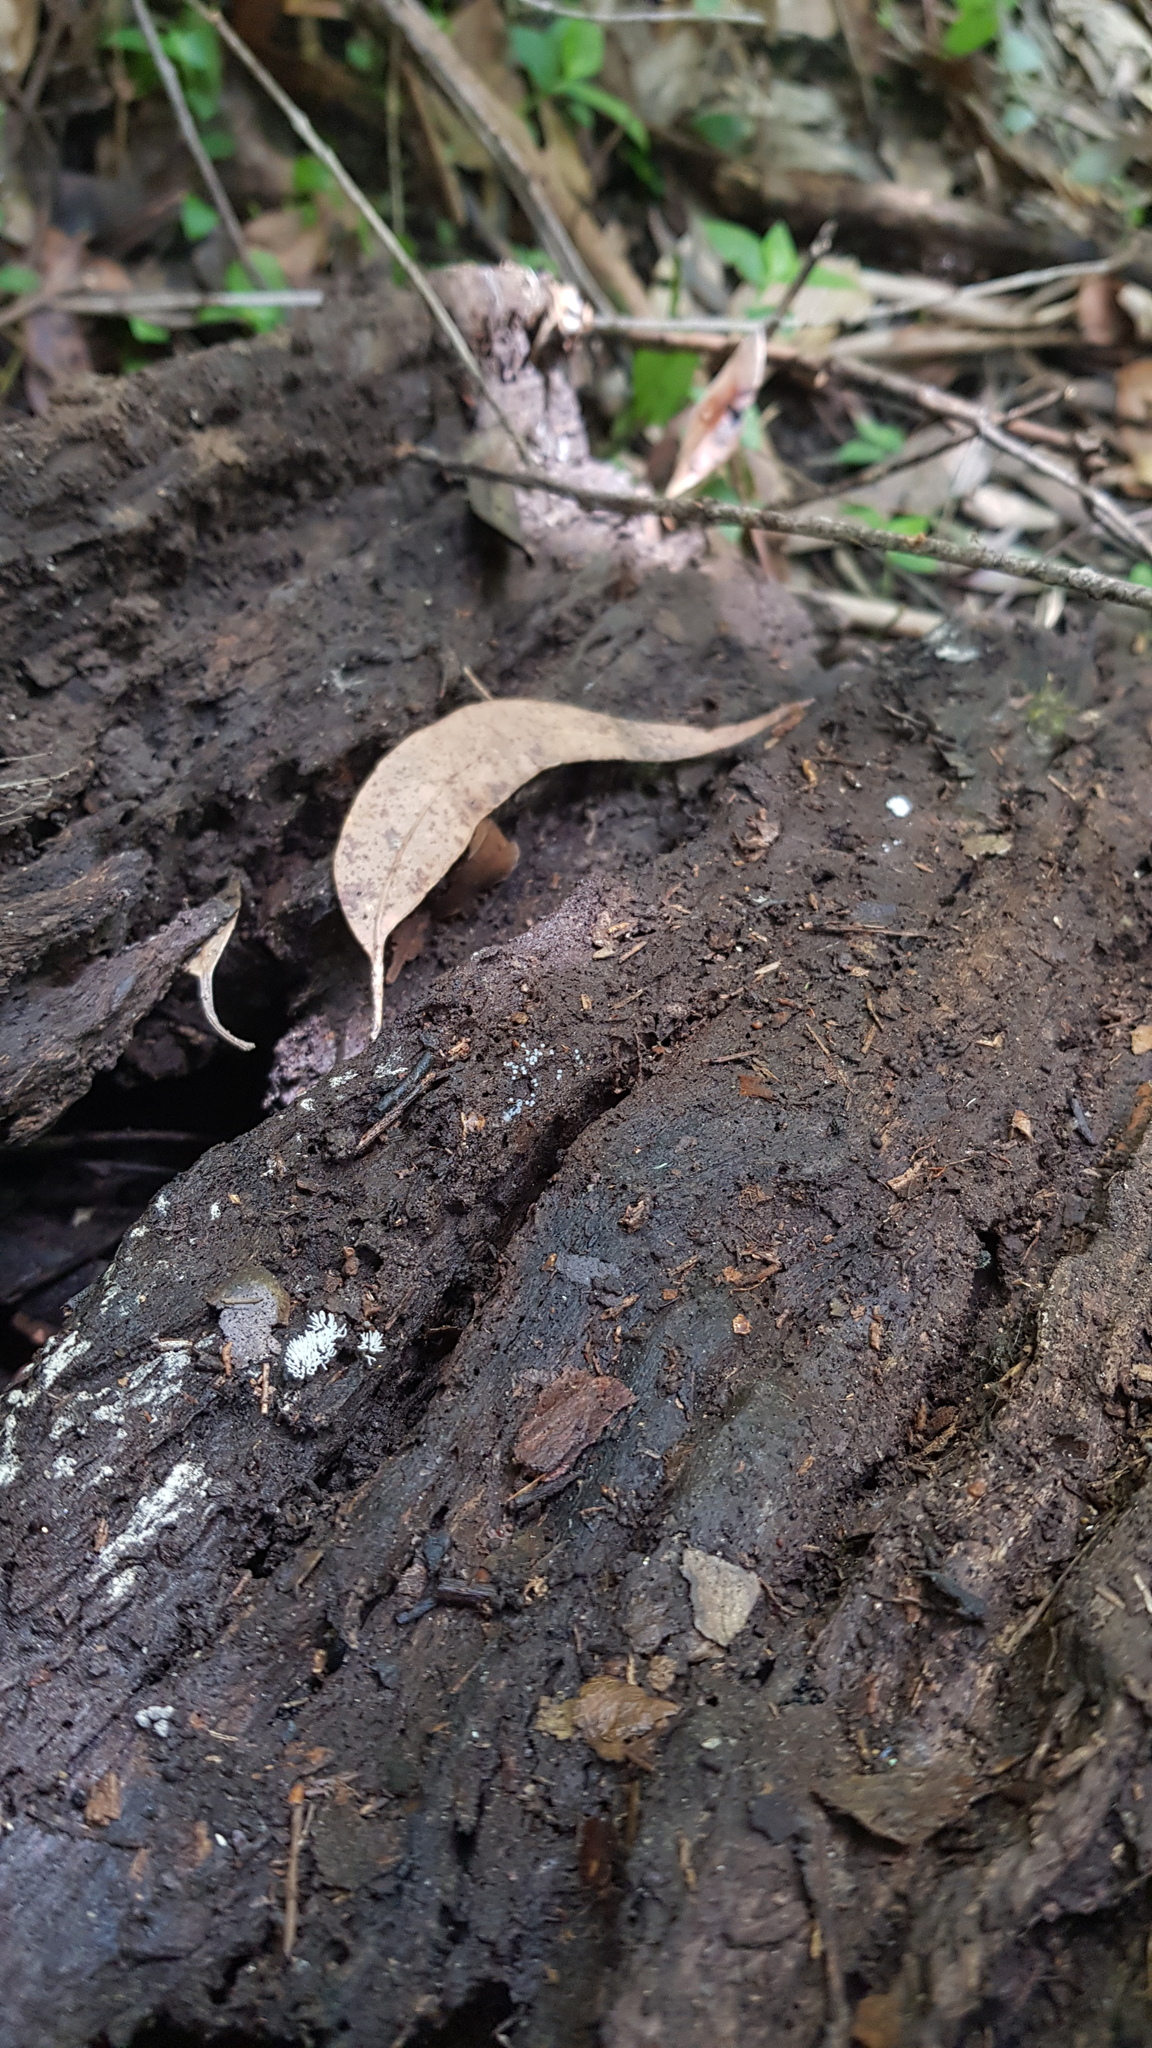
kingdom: Protozoa
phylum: Mycetozoa
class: Protosteliomycetes
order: Ceratiomyxales
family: Ceratiomyxaceae
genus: Ceratiomyxa
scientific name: Ceratiomyxa fruticulosa
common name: Honeycomb coral slime mold
